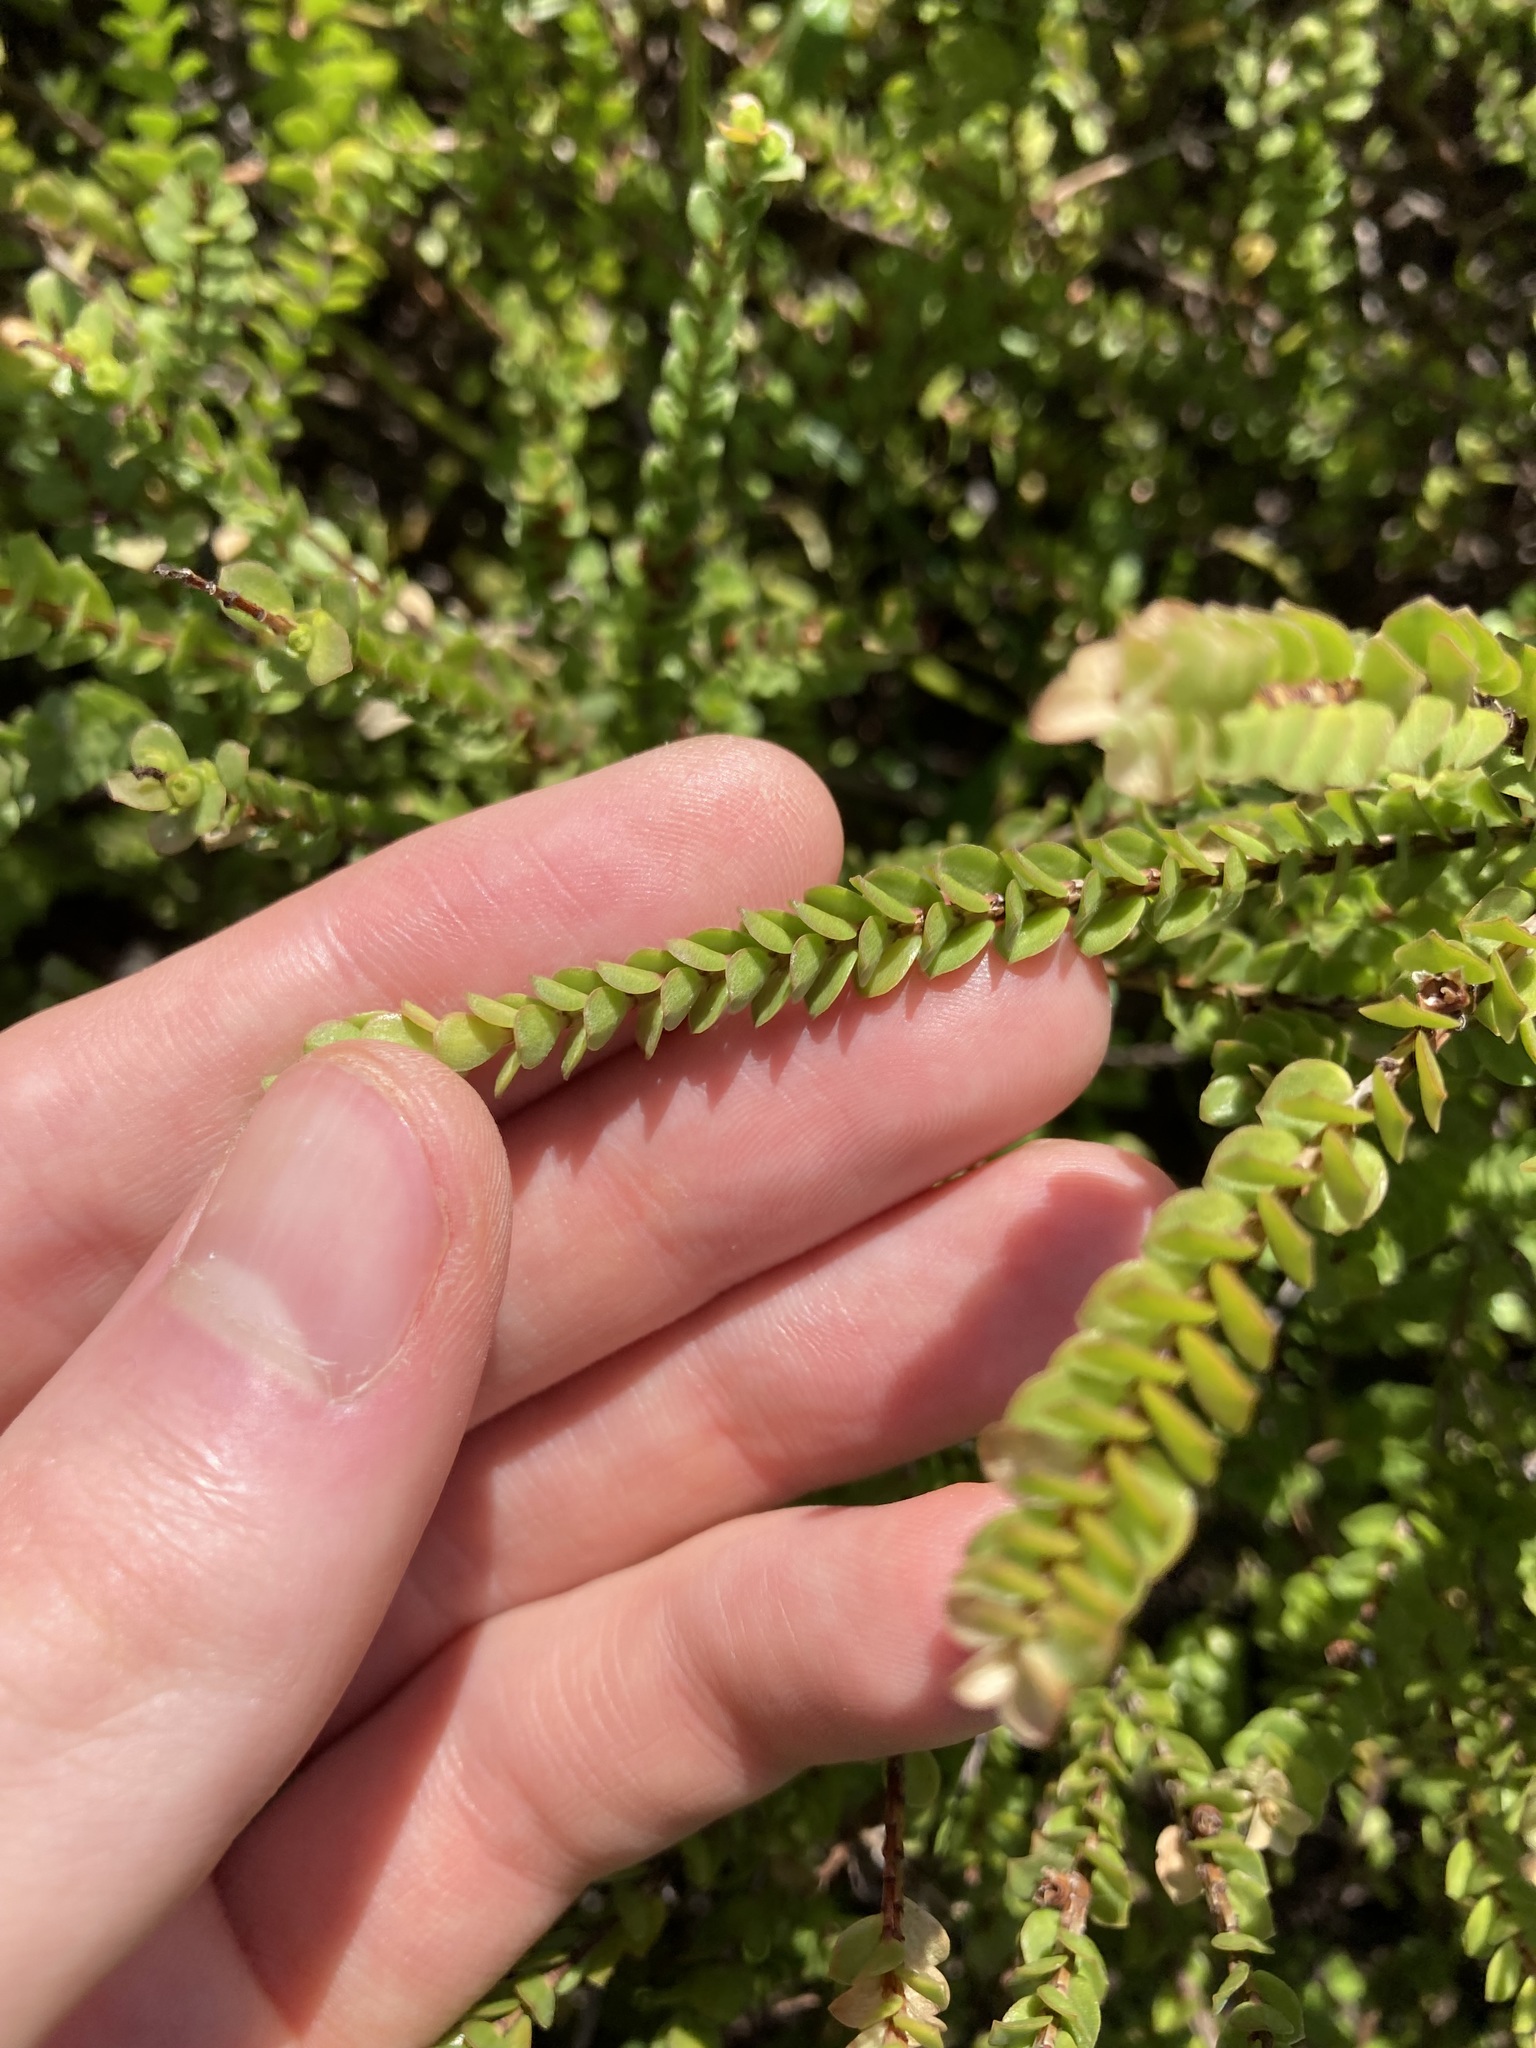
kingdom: Plantae
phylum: Tracheophyta
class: Magnoliopsida
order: Myrtales
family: Myrtaceae
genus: Baeckea
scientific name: Baeckea imbricata
